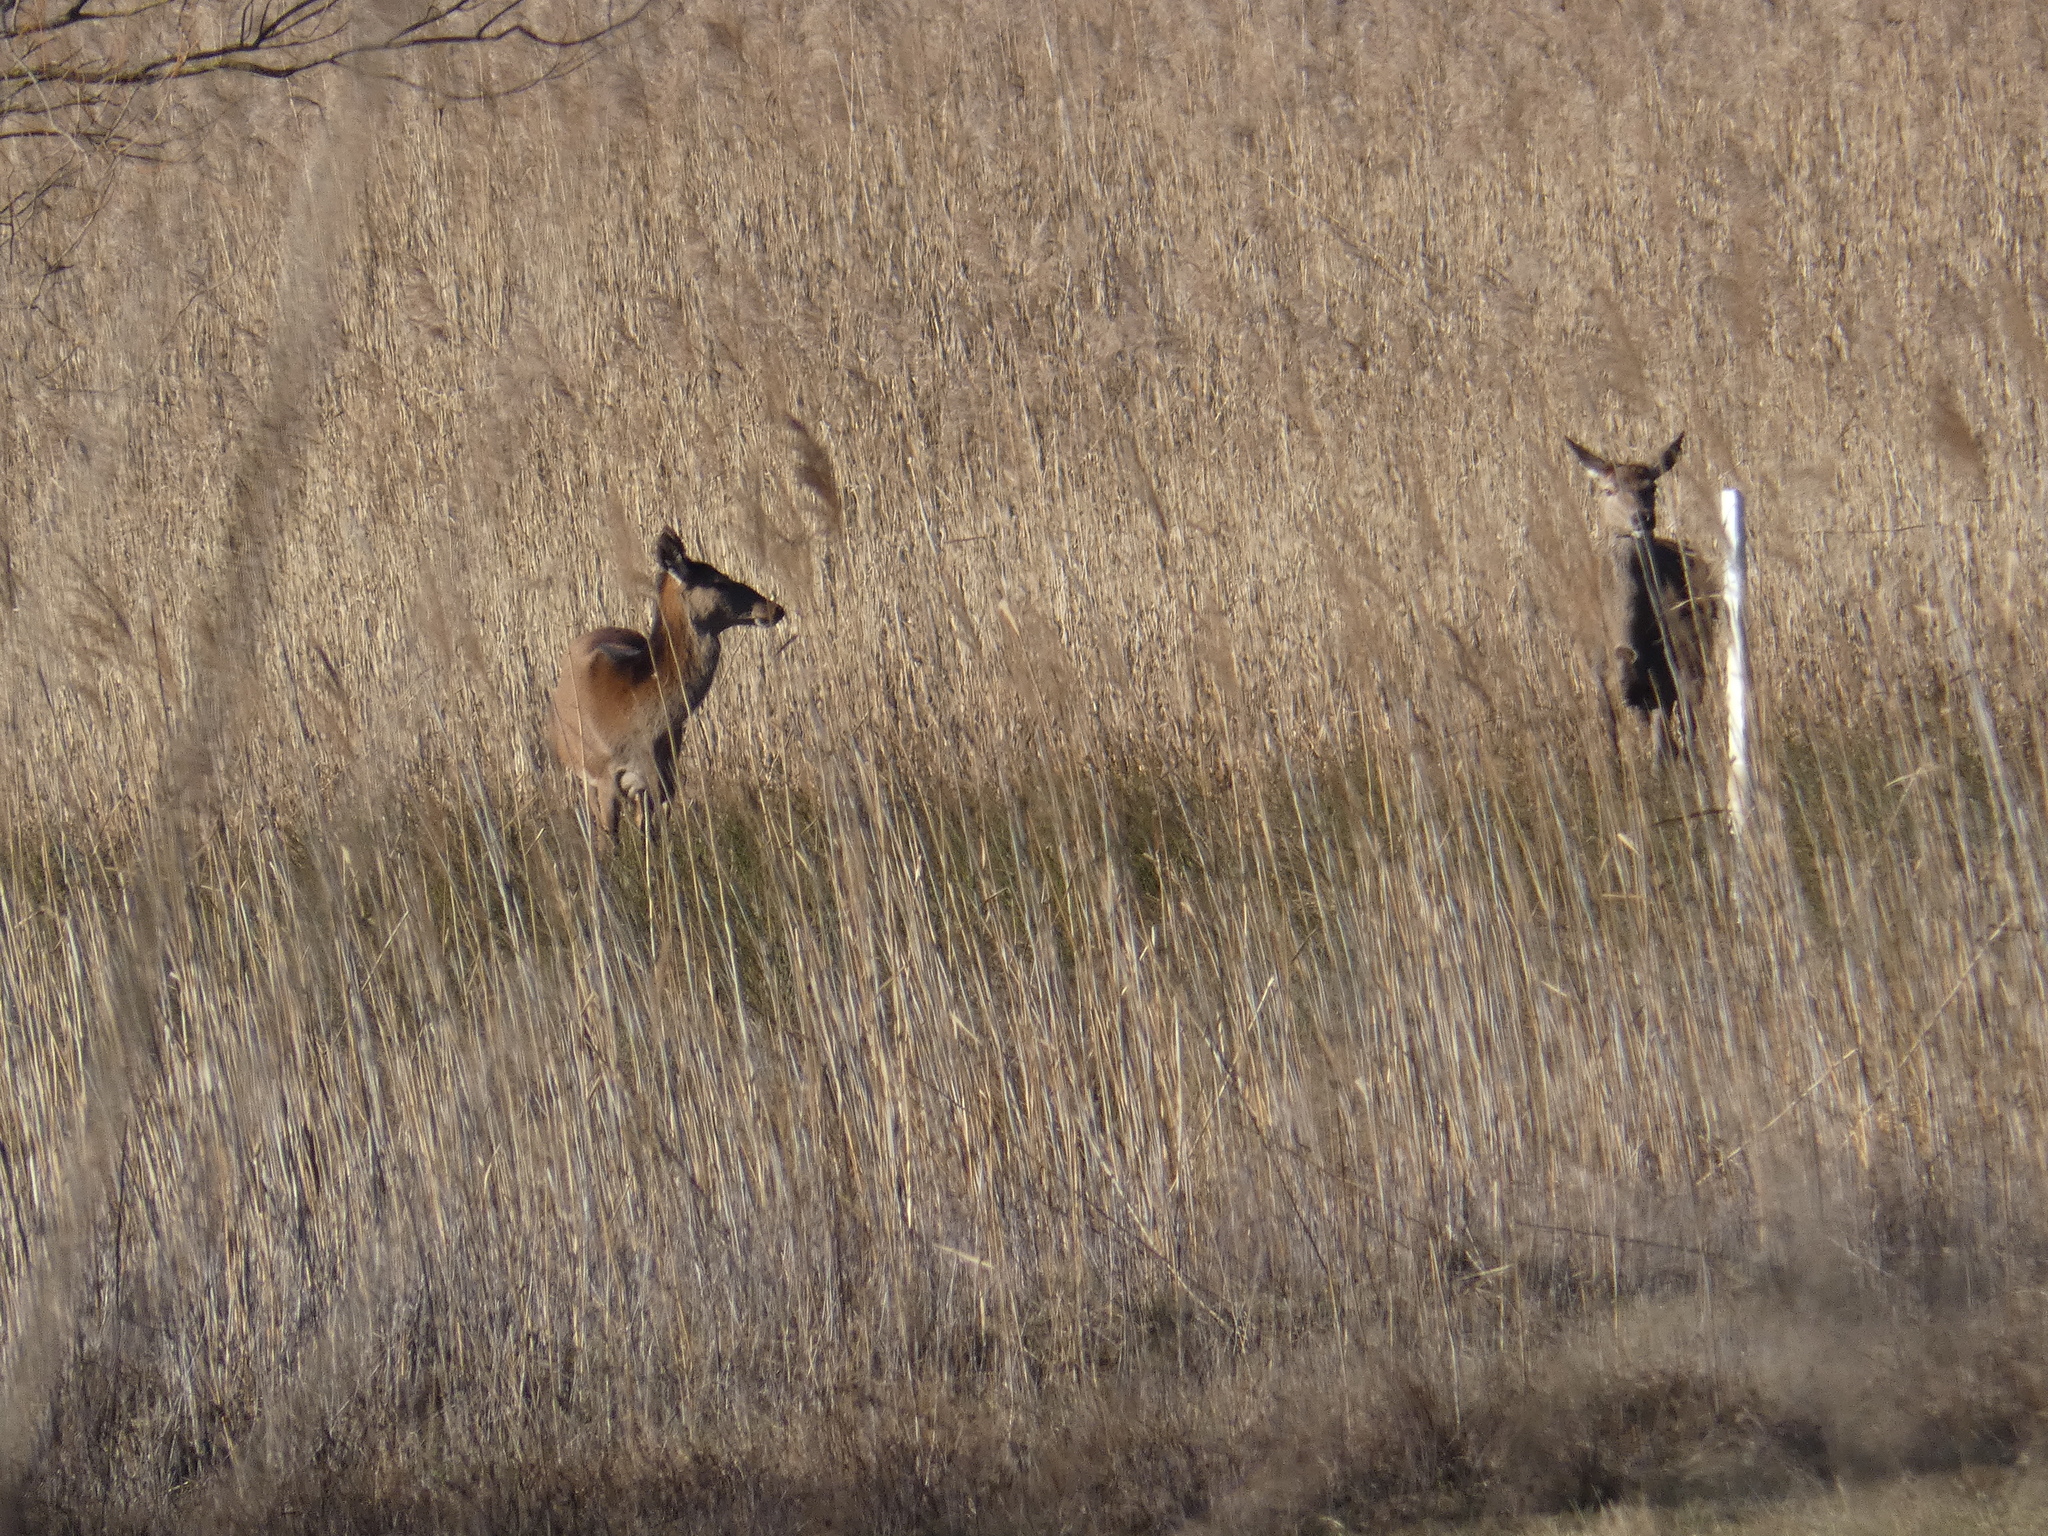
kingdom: Animalia
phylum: Chordata
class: Mammalia
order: Artiodactyla
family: Cervidae
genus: Cervus
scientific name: Cervus elaphus
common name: Red deer
